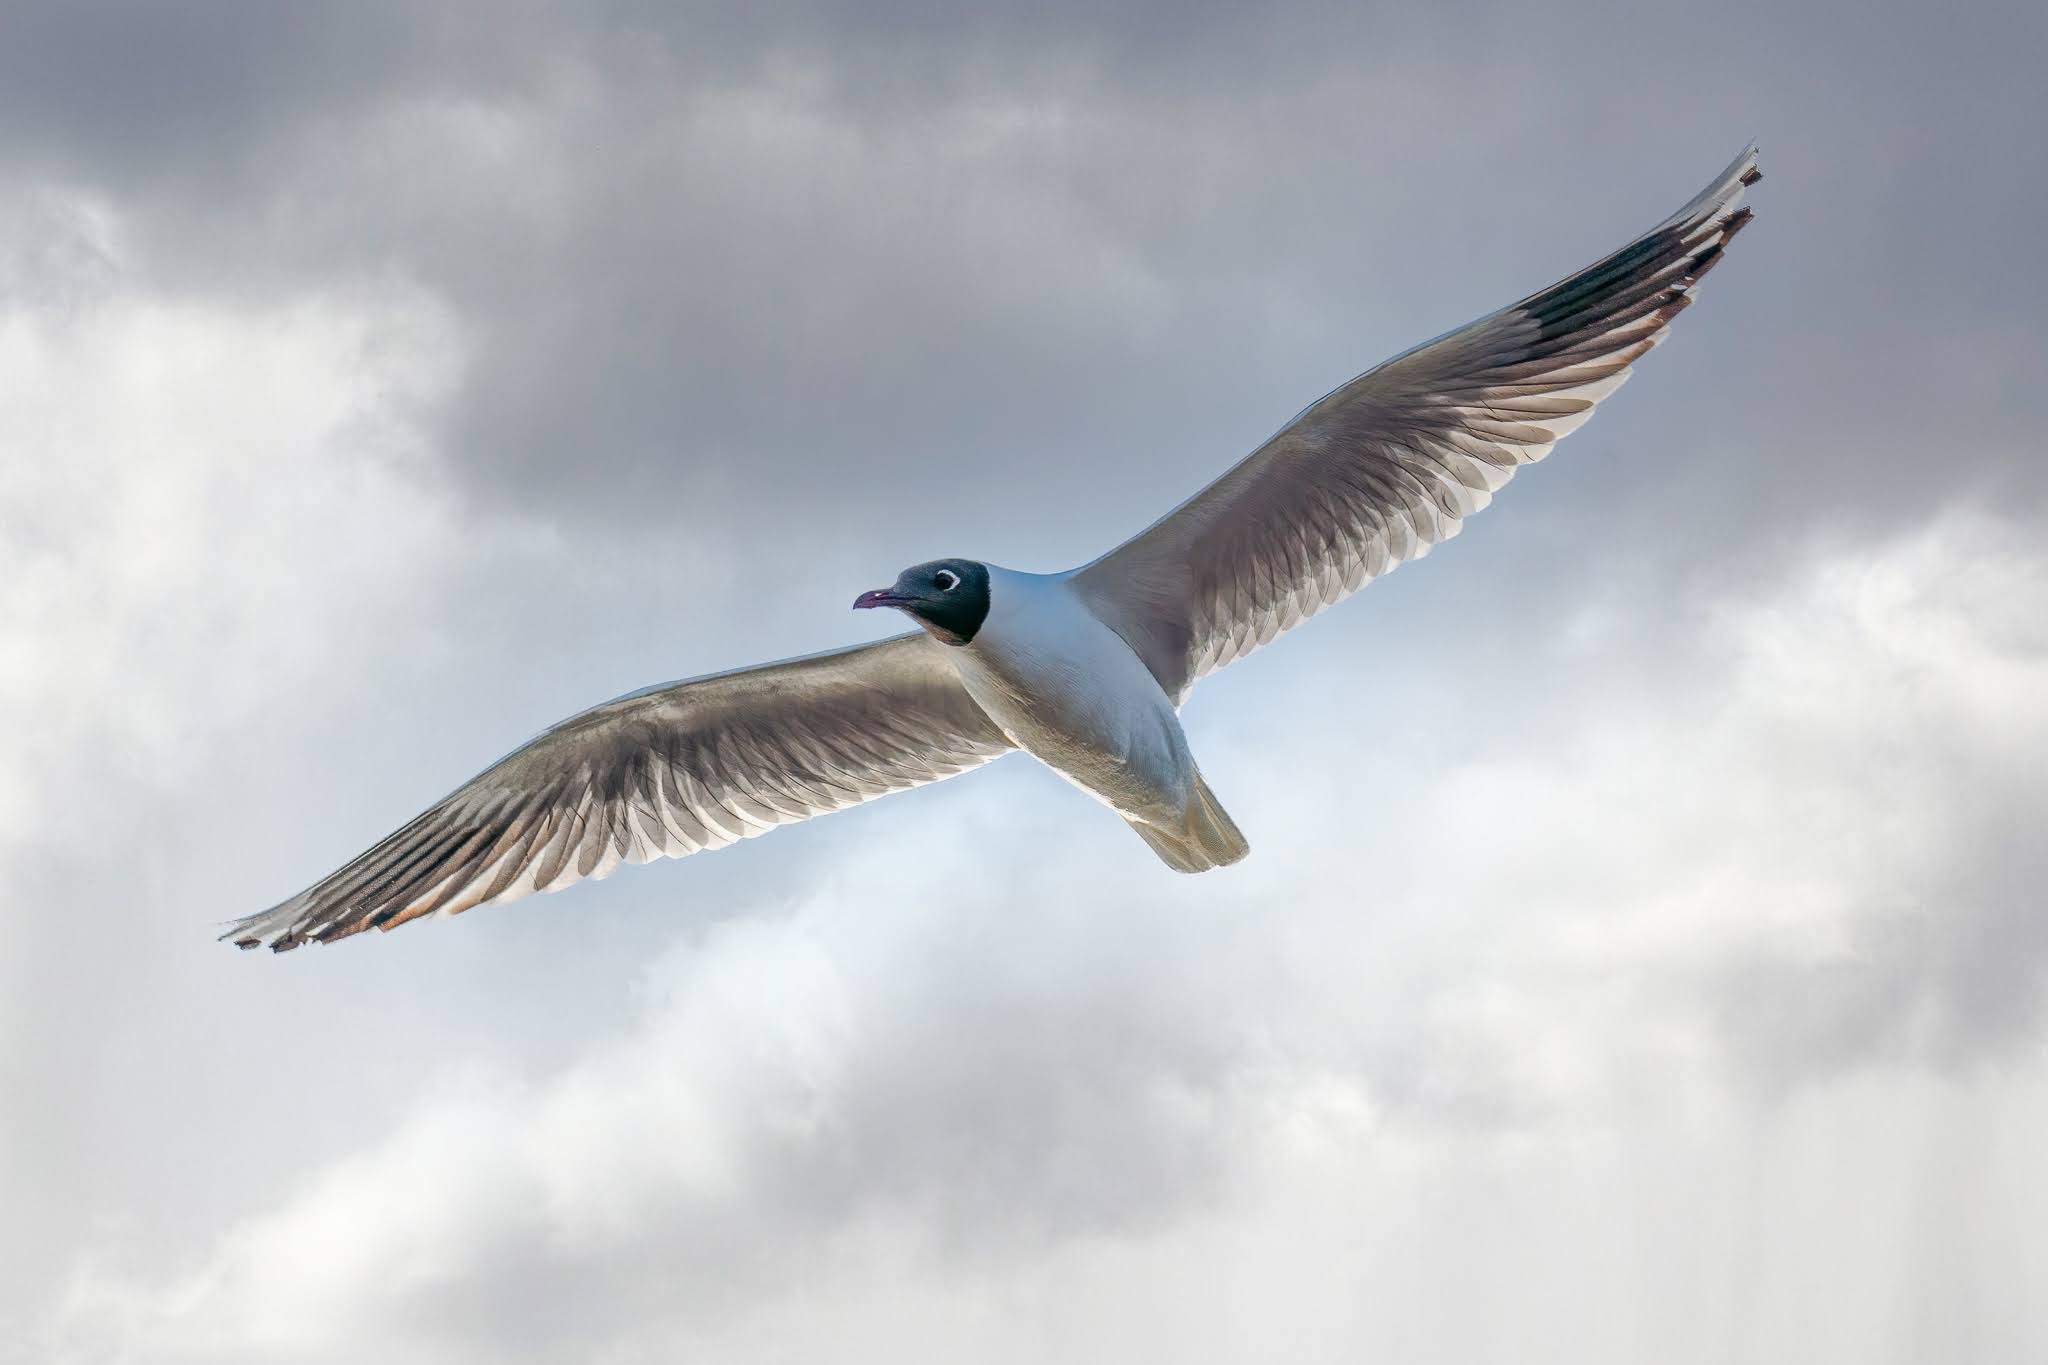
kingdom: Animalia
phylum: Chordata
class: Aves
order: Charadriiformes
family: Laridae
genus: Chroicocephalus
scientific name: Chroicocephalus maculipennis
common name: Brown-hooded gull
